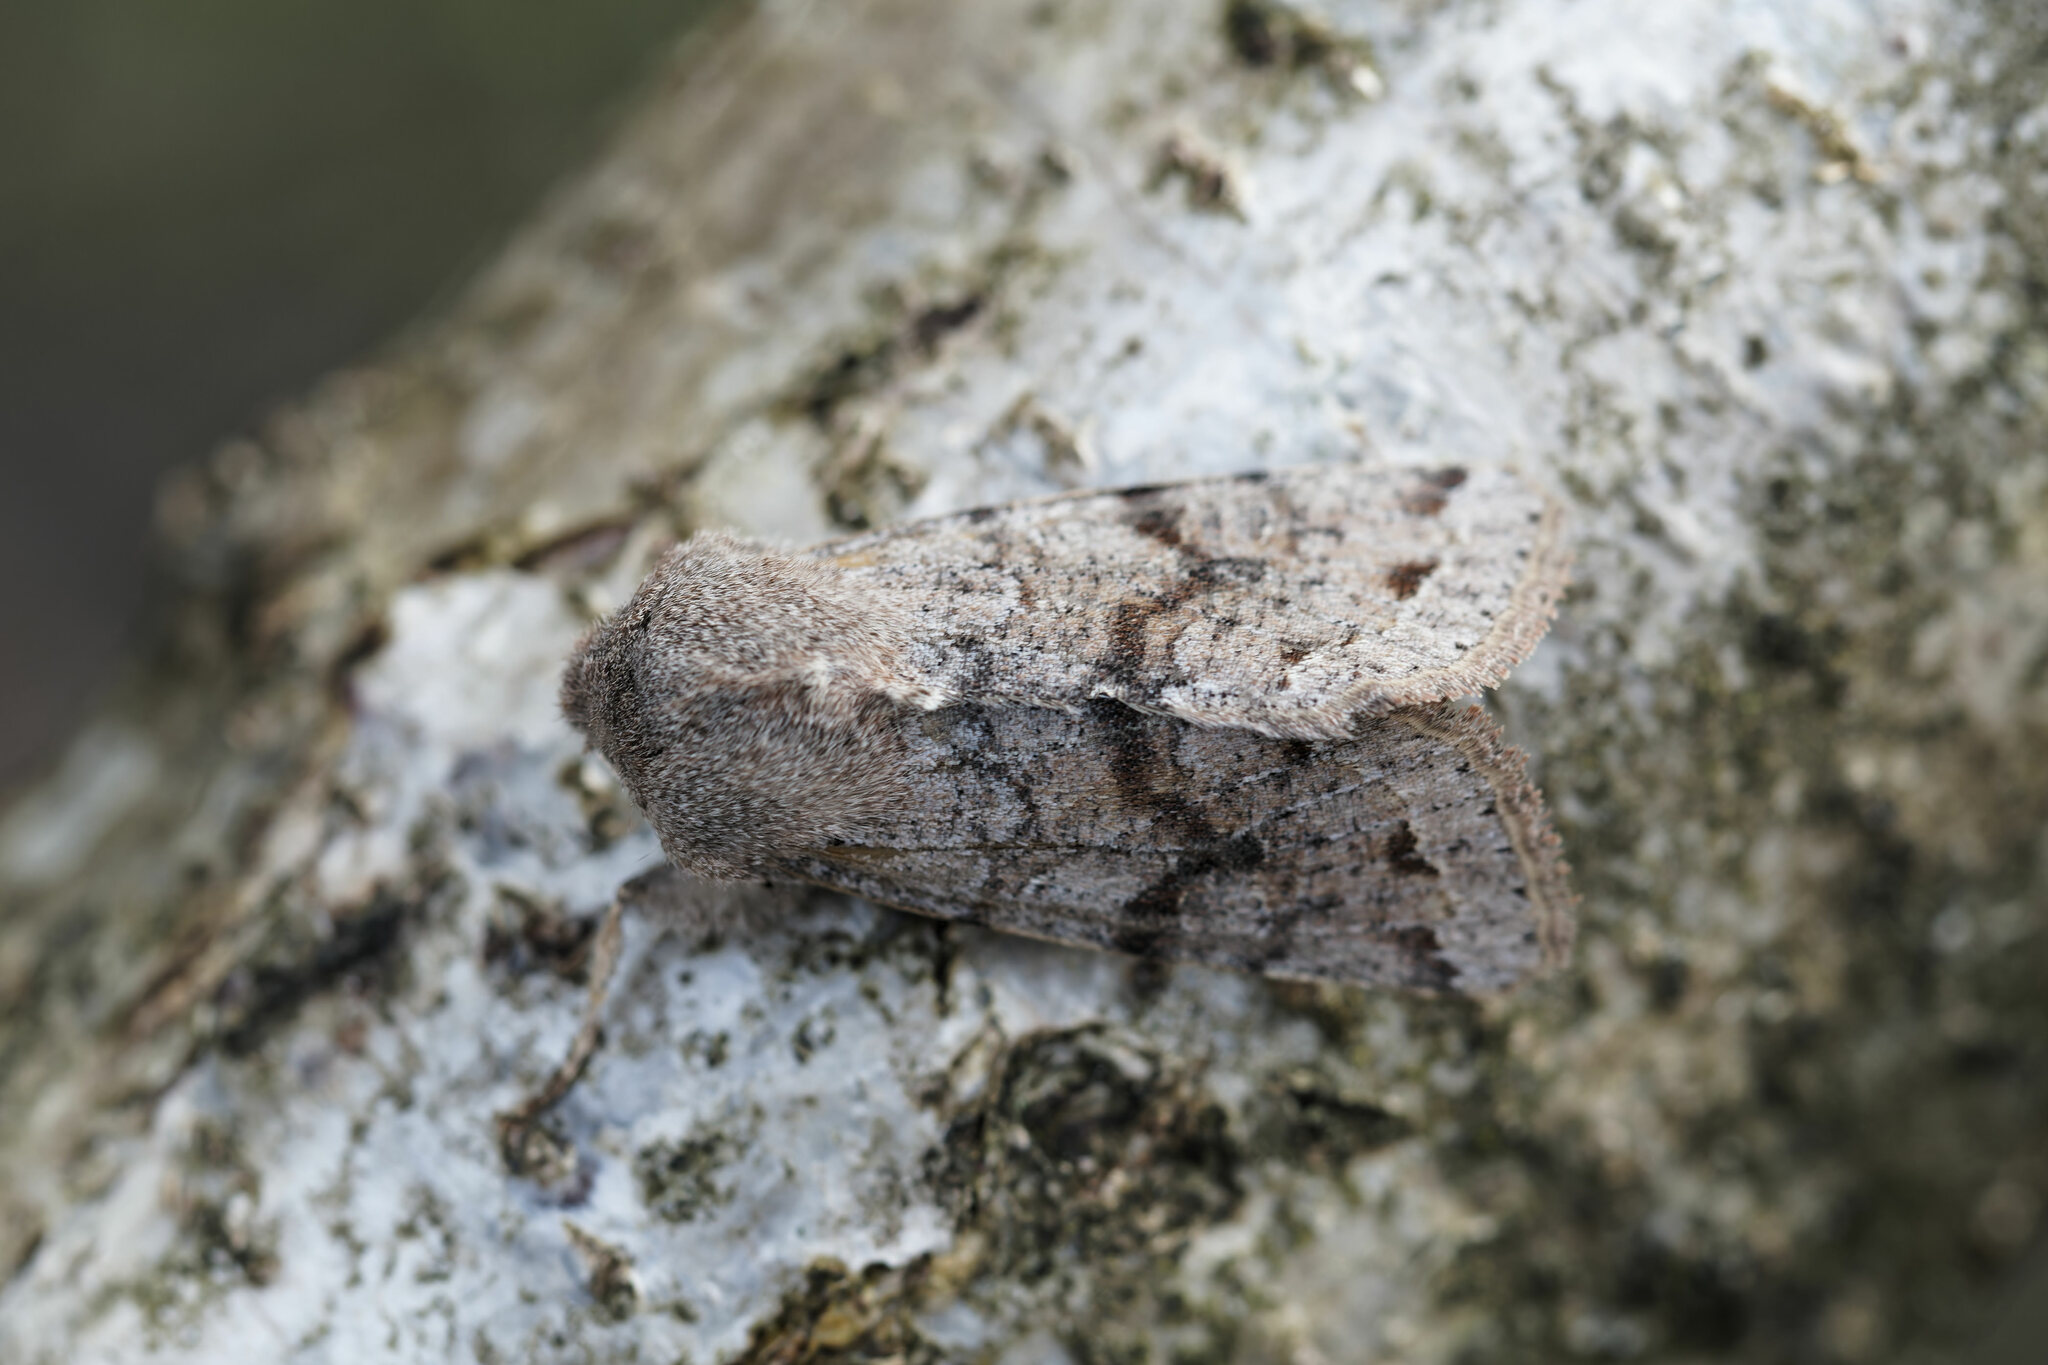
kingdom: Animalia
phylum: Arthropoda
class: Insecta
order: Lepidoptera
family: Noctuidae
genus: Orthosia
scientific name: Orthosia incerta
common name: Clouded drab
